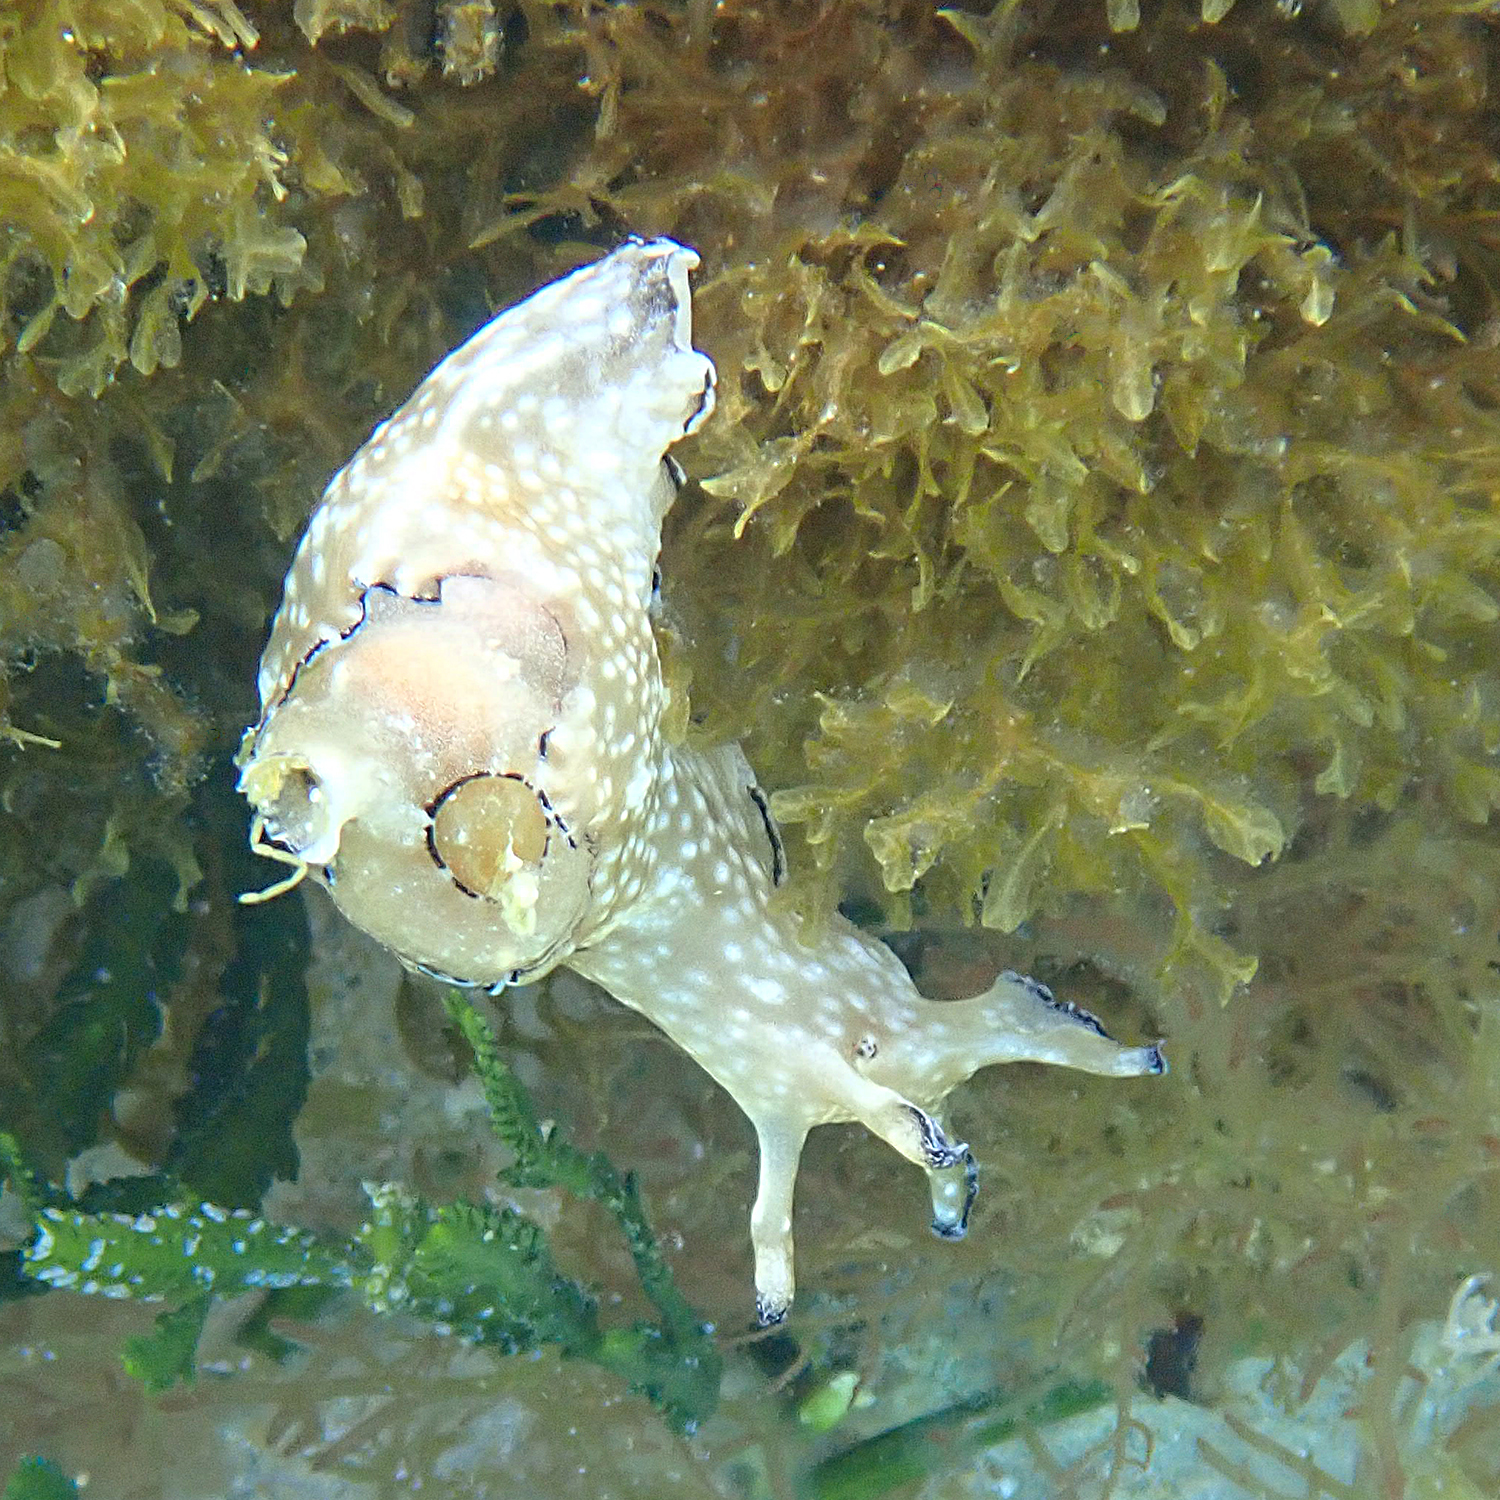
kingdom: Animalia
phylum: Mollusca
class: Gastropoda
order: Aplysiida
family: Aplysiidae
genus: Aplysia
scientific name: Aplysia concava
